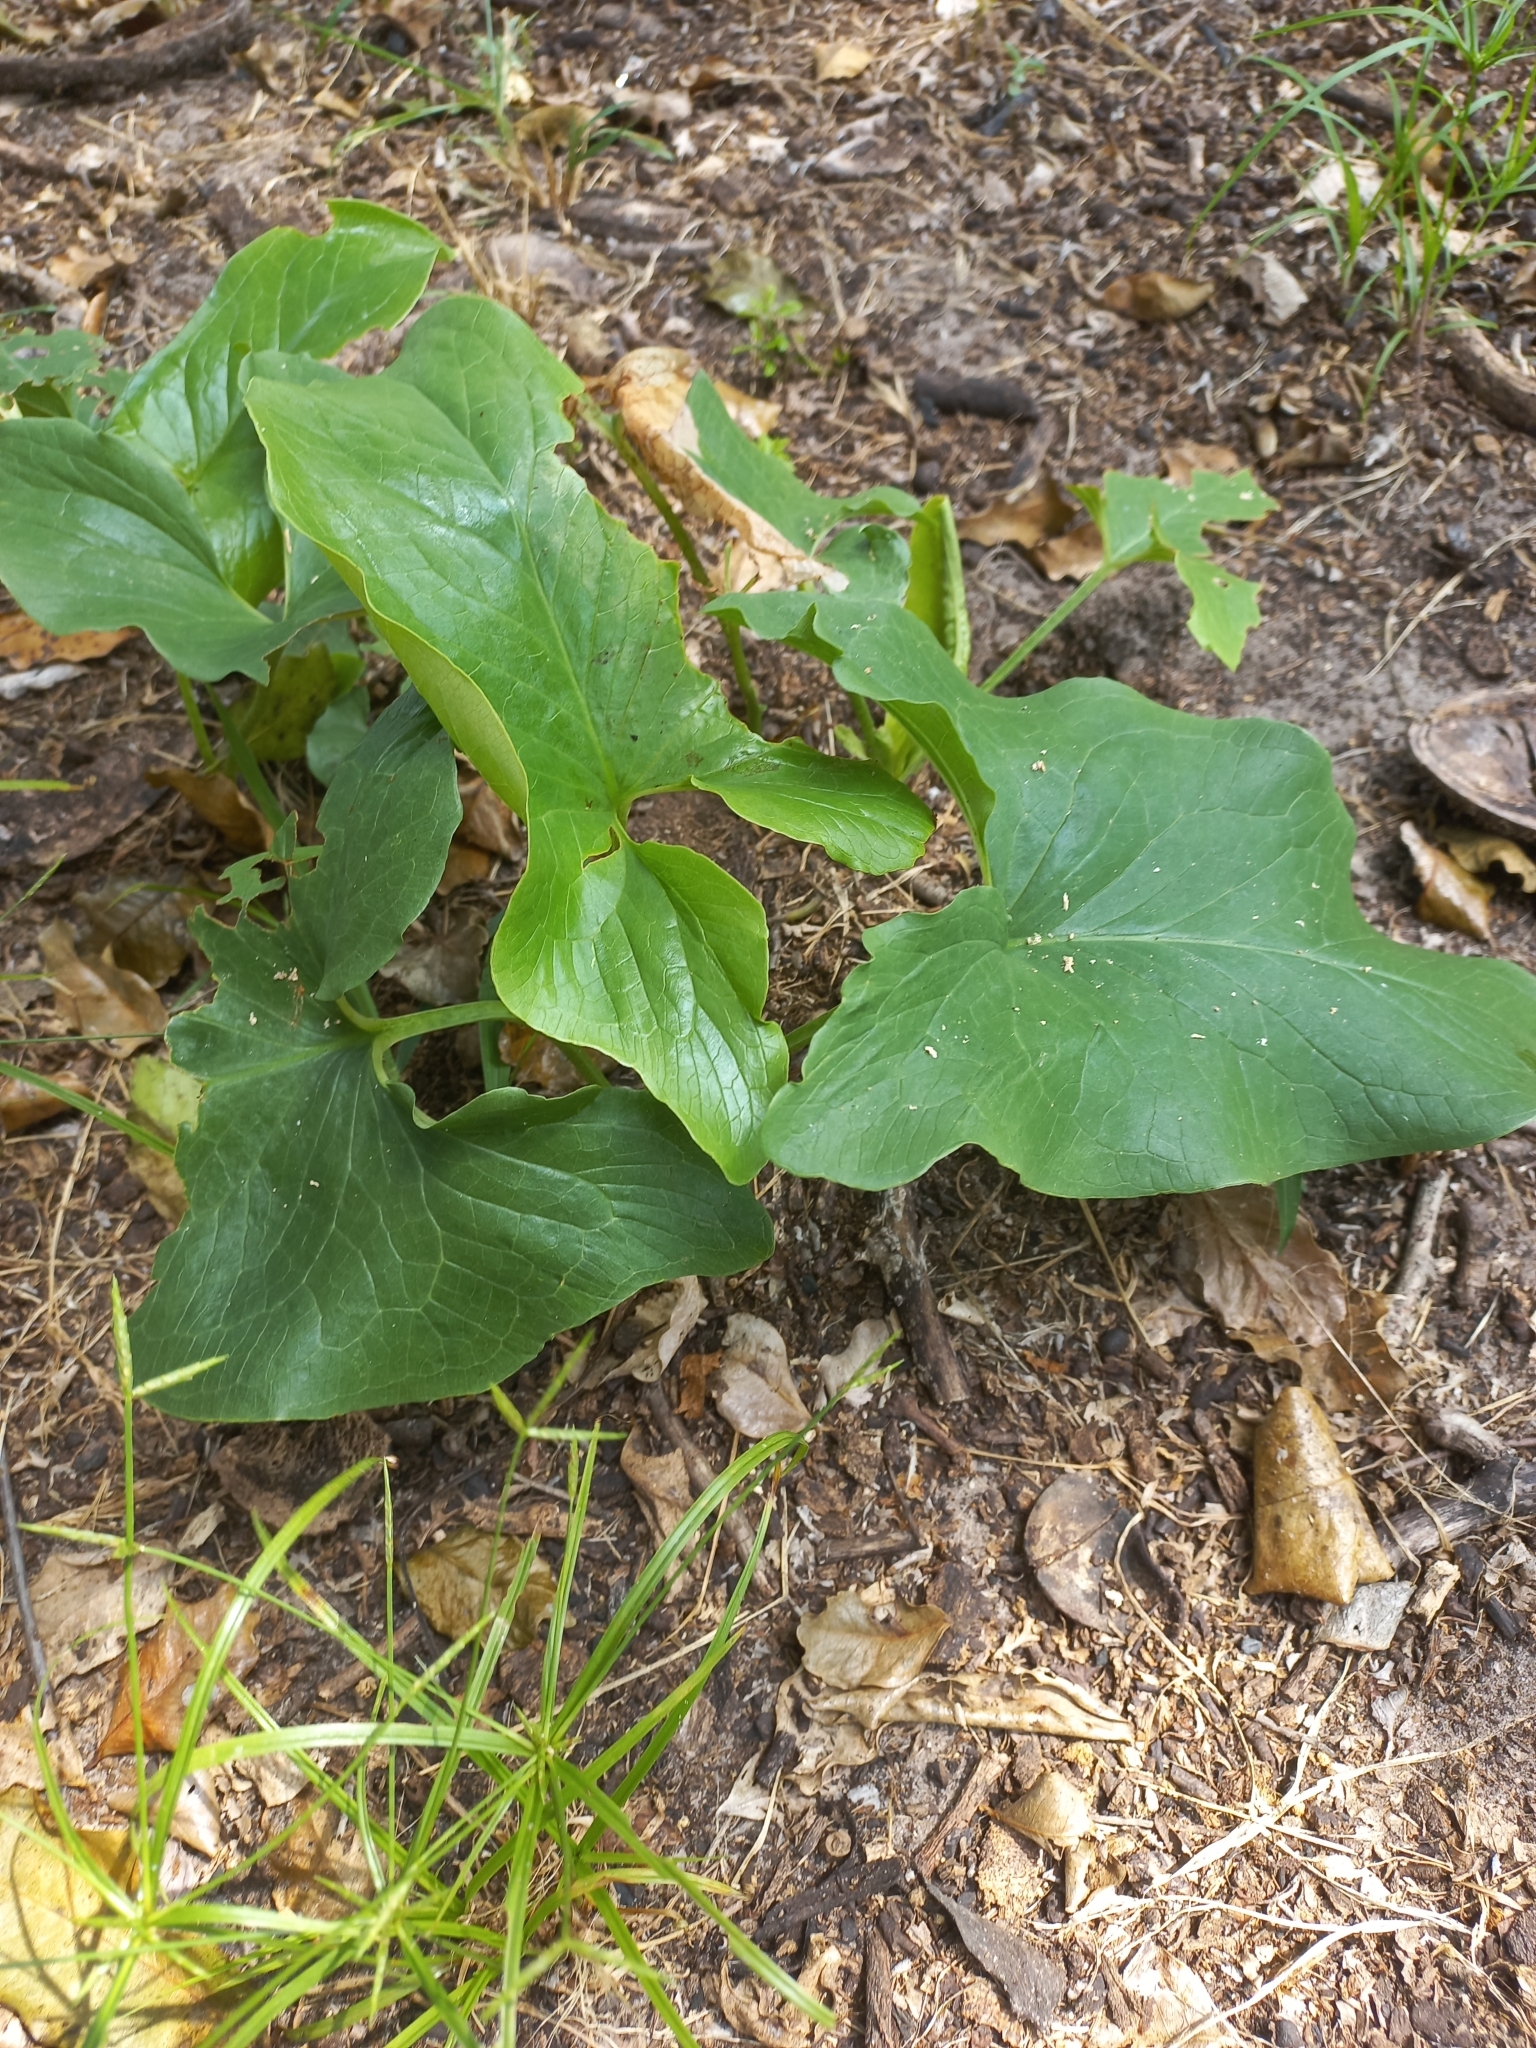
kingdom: Plantae
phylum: Tracheophyta
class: Liliopsida
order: Alismatales
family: Araceae
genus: Stylochaeton
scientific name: Stylochaeton natalensis
